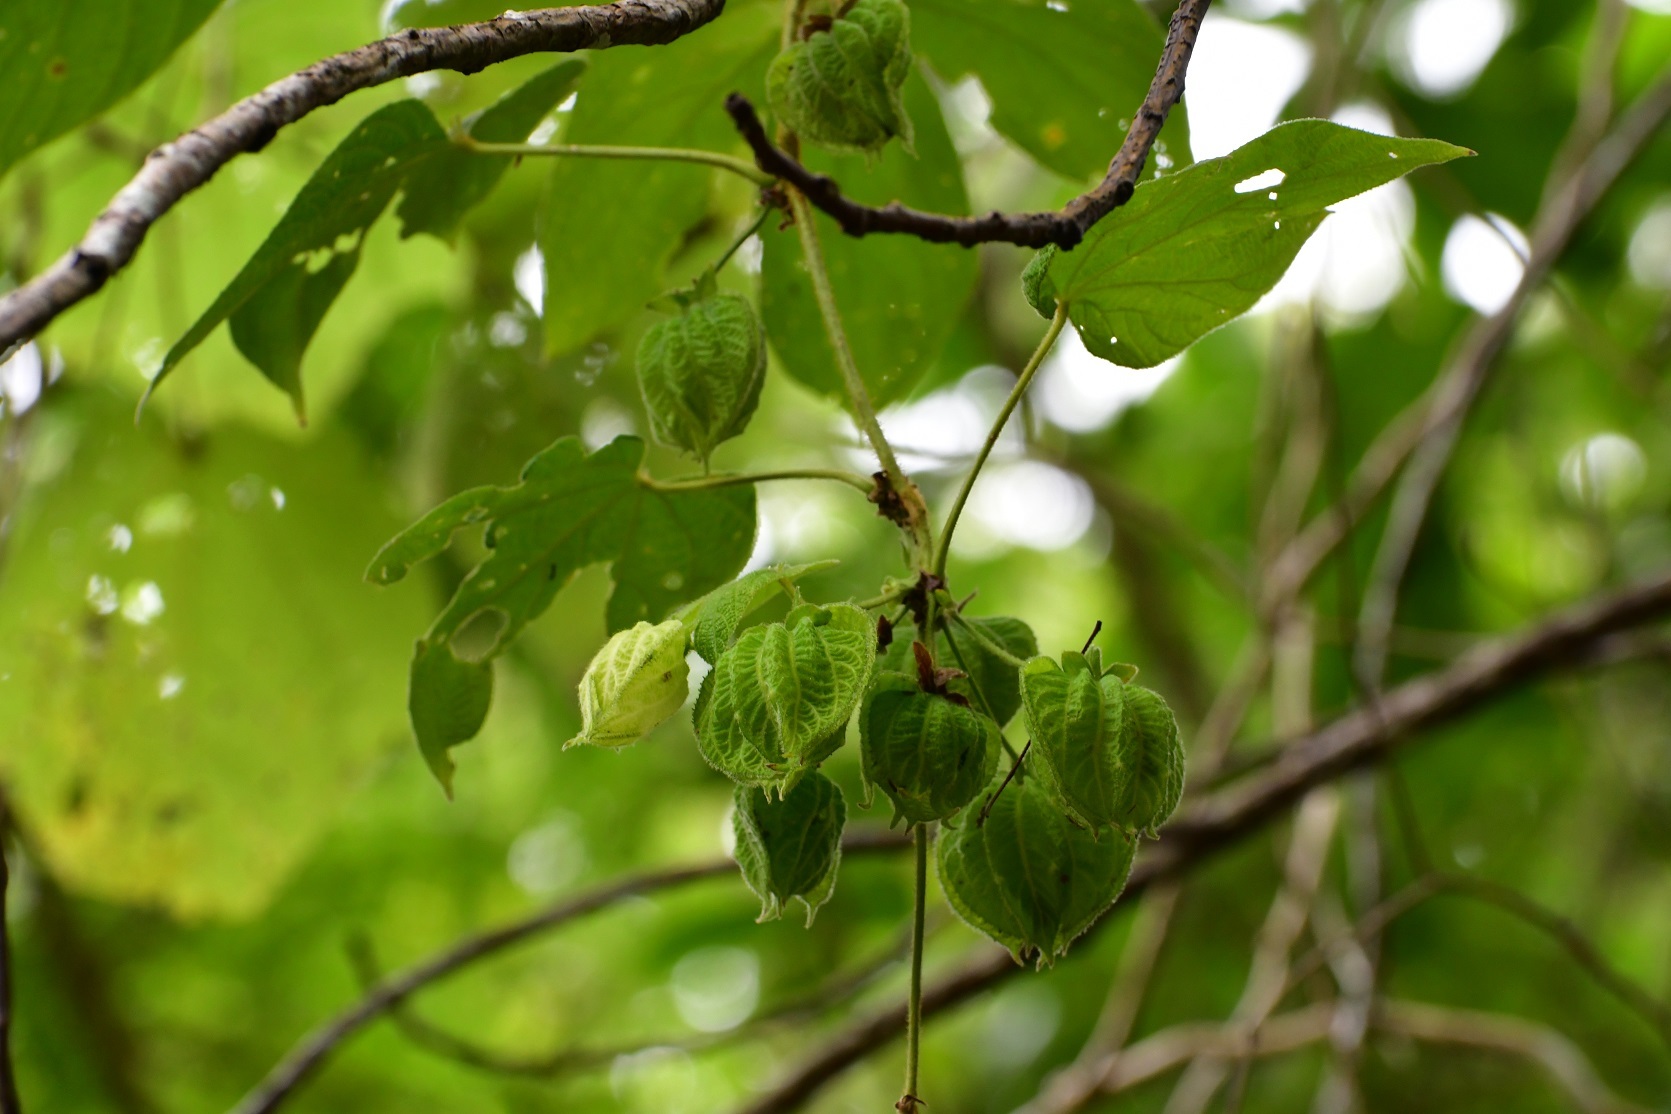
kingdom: Plantae
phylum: Tracheophyta
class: Magnoliopsida
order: Malpighiales
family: Euphorbiaceae
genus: Dalechampia
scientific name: Dalechampia scandens
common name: Spurgecreeper
